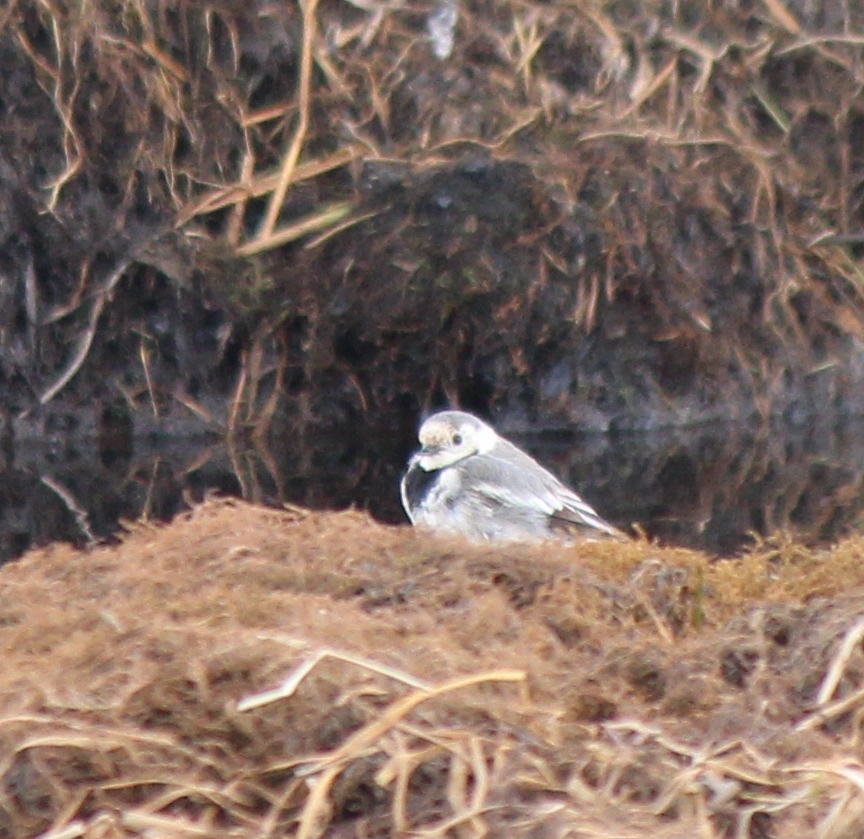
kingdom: Animalia
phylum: Chordata
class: Aves
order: Passeriformes
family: Motacillidae
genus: Motacilla
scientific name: Motacilla alba
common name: White wagtail
